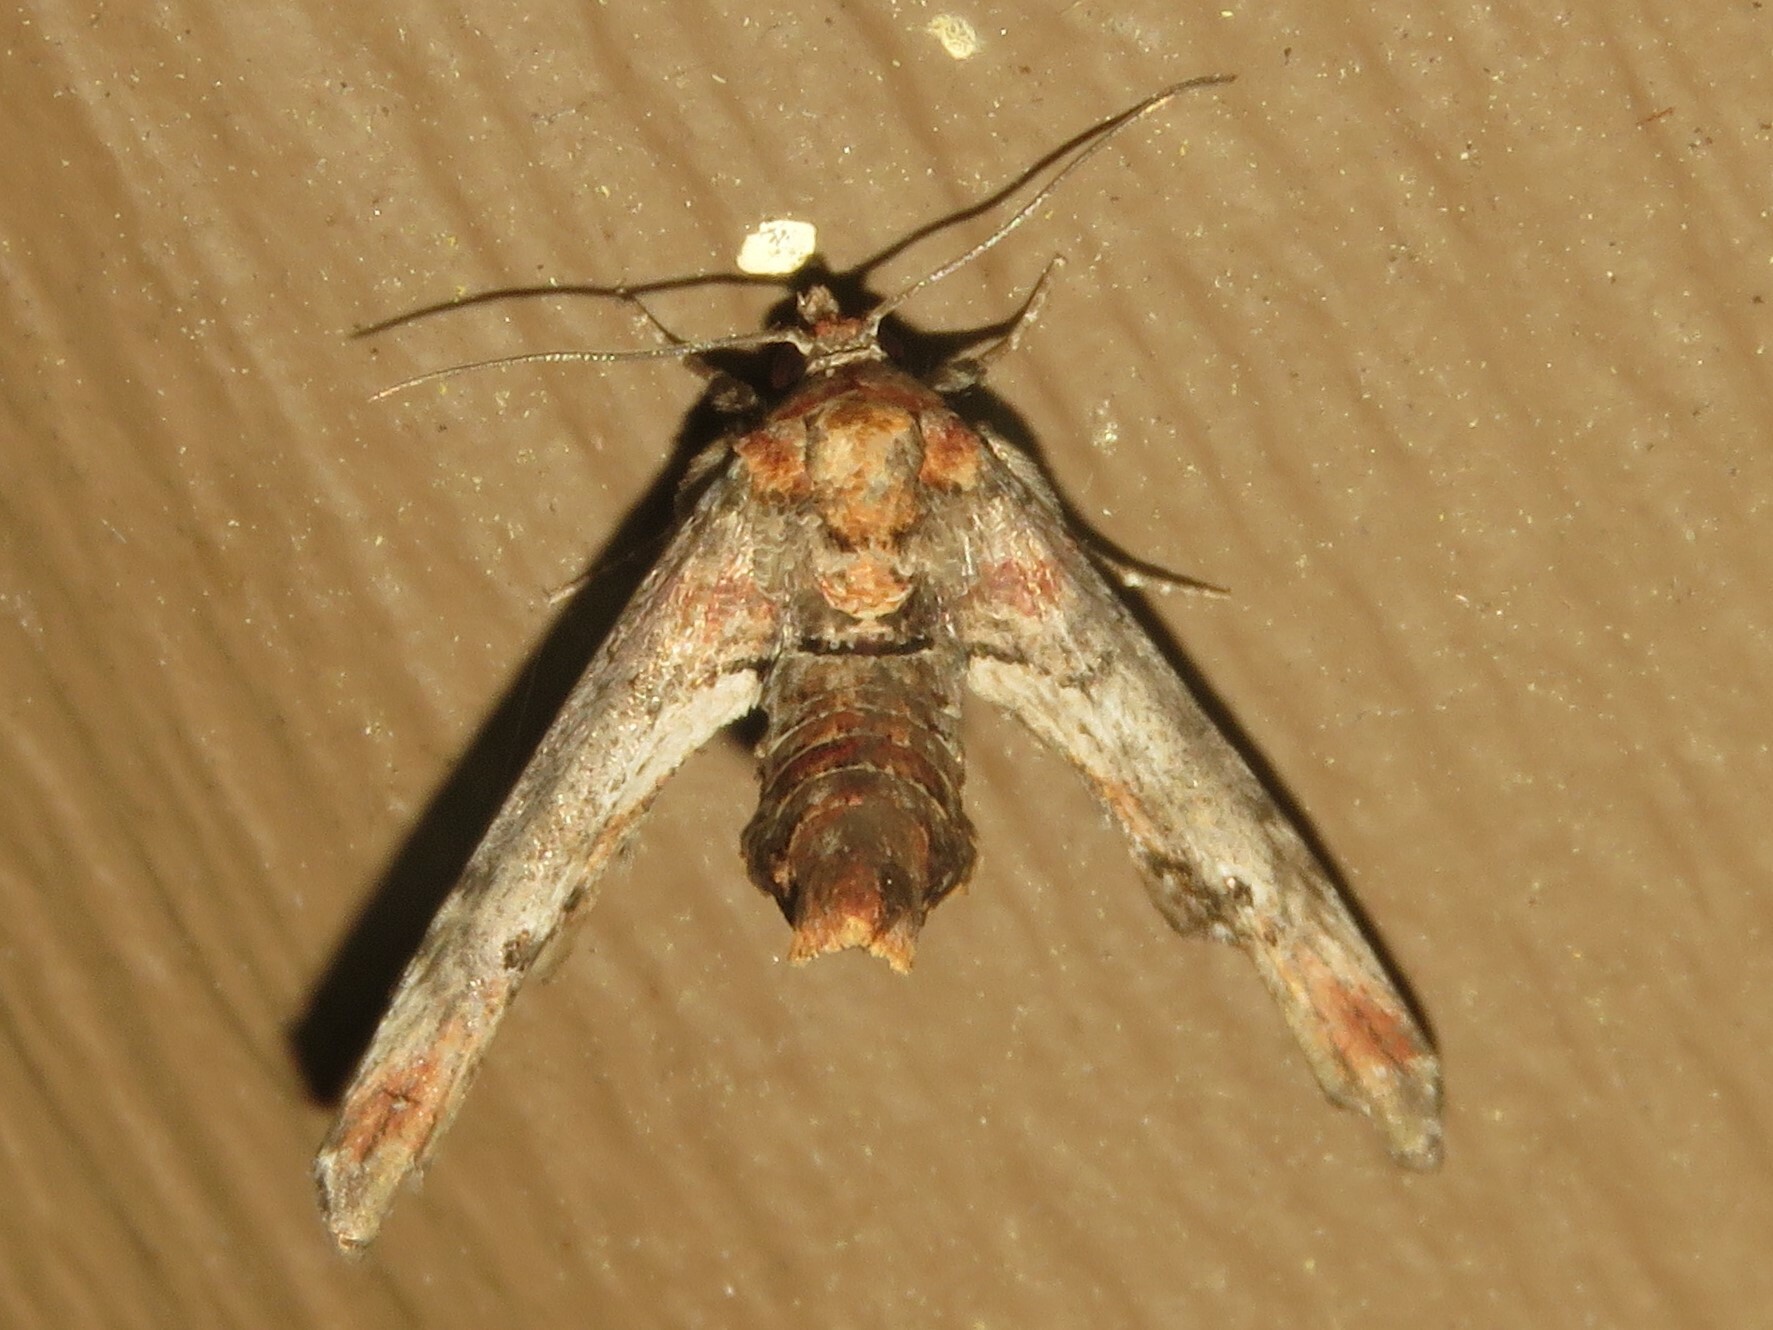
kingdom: Animalia
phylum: Arthropoda
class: Insecta
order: Lepidoptera
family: Euteliidae
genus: Marathyssa
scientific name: Marathyssa inficita
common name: Dark marathyssa moth
